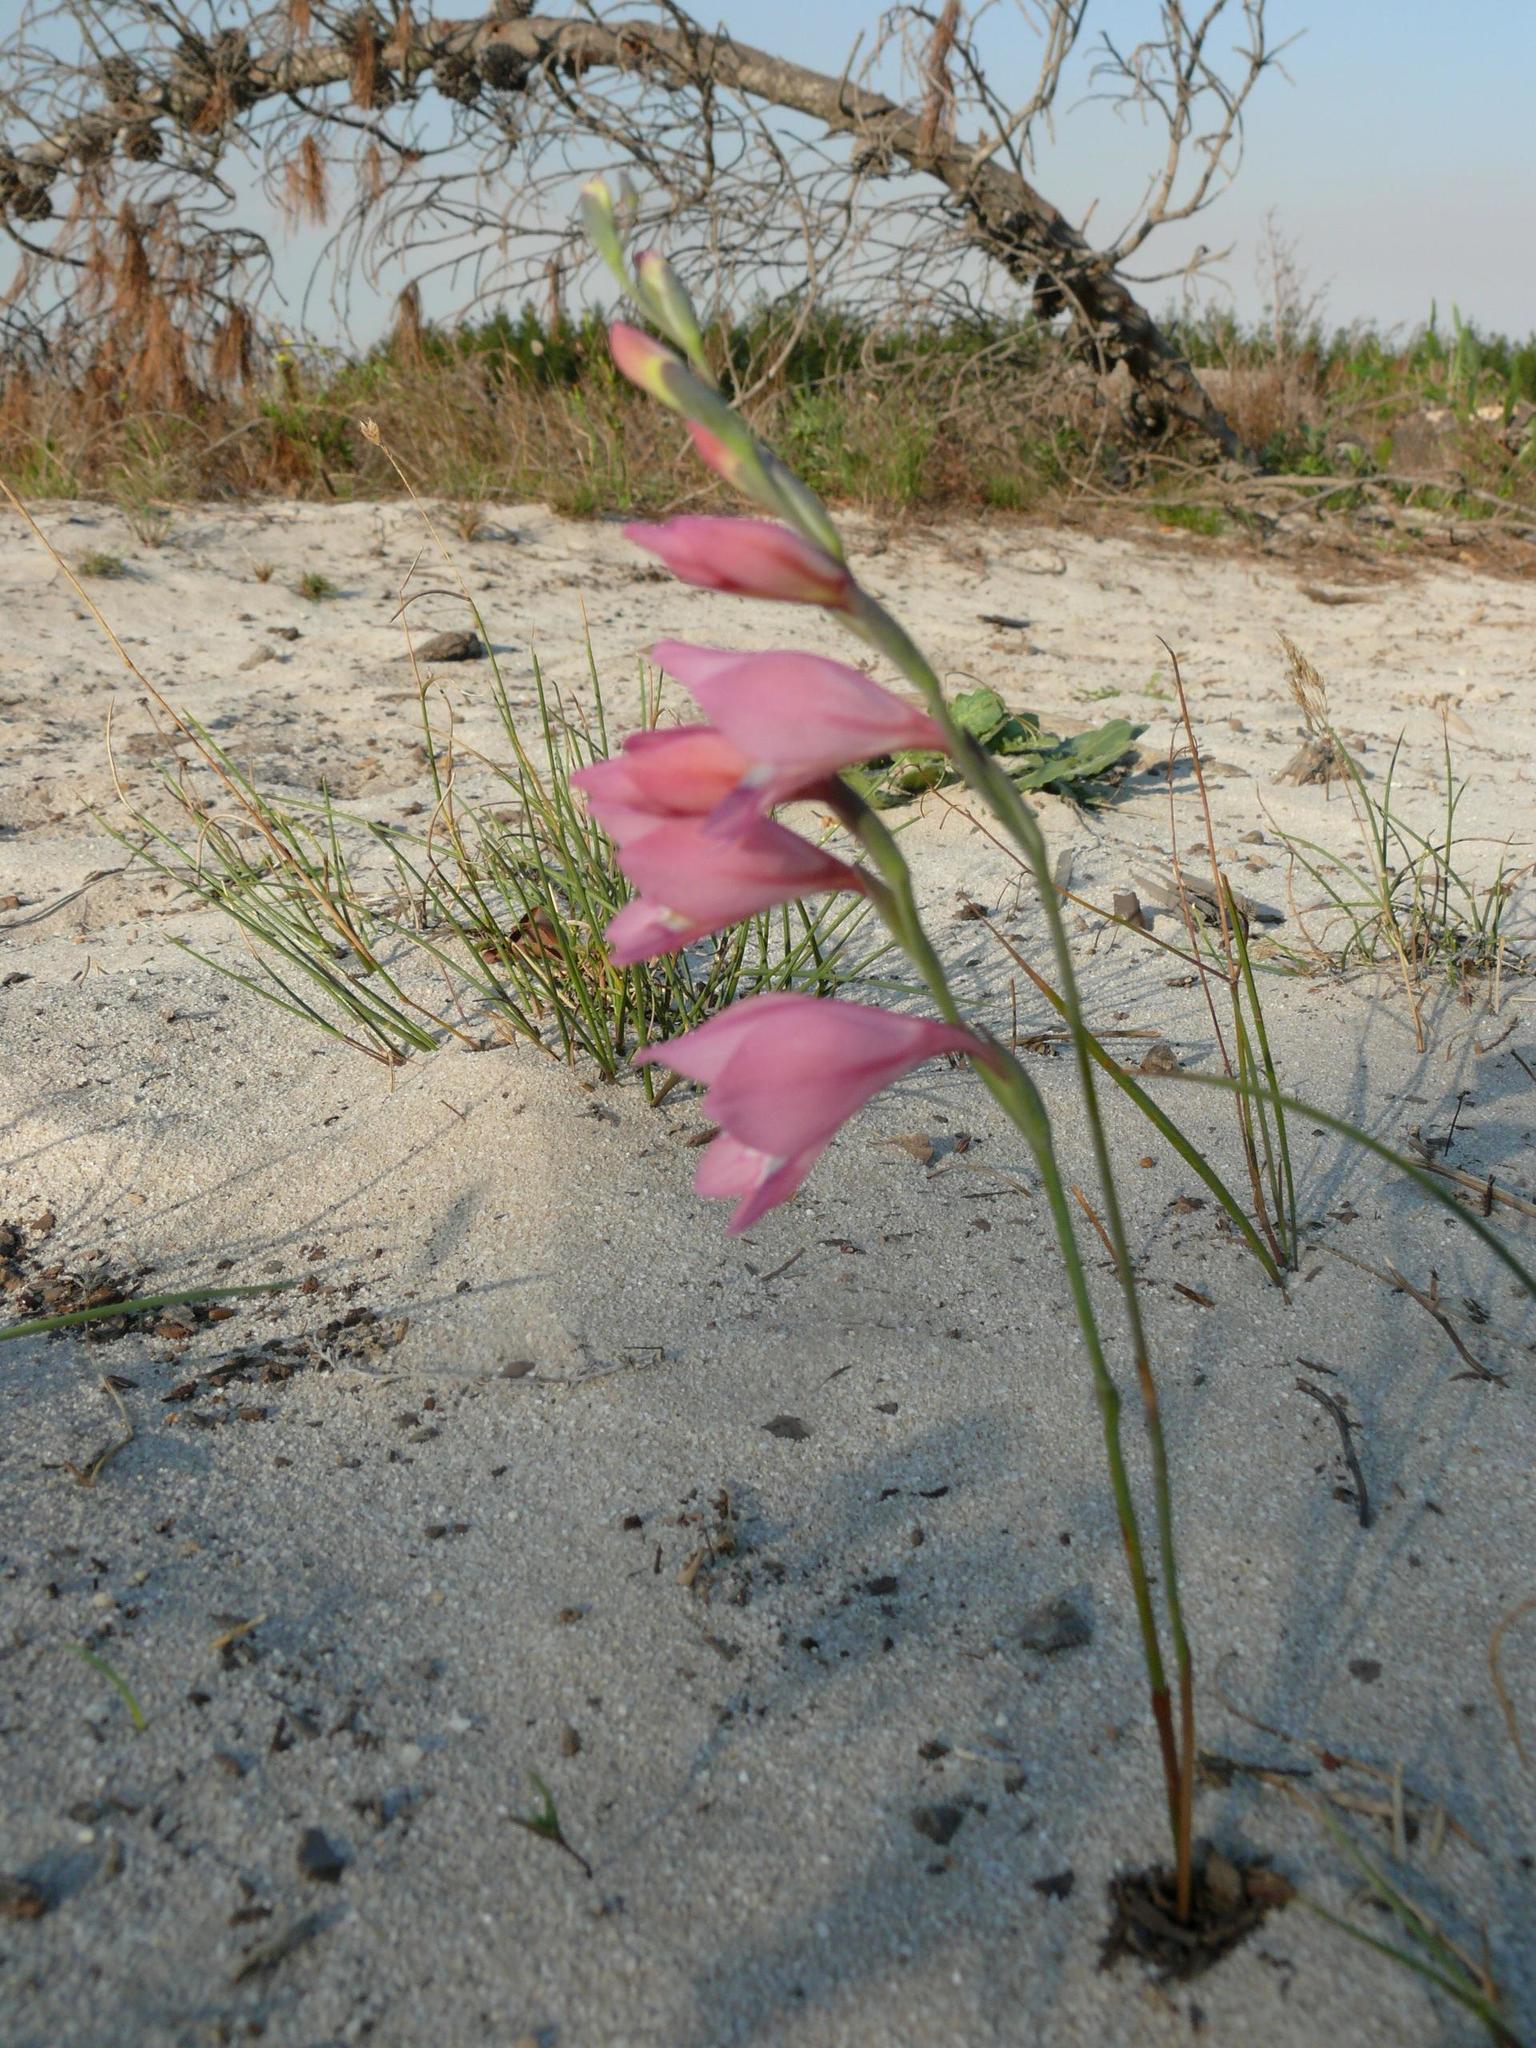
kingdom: Plantae
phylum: Tracheophyta
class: Liliopsida
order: Asparagales
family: Iridaceae
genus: Gladiolus
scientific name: Gladiolus brevifolius
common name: March pypie
